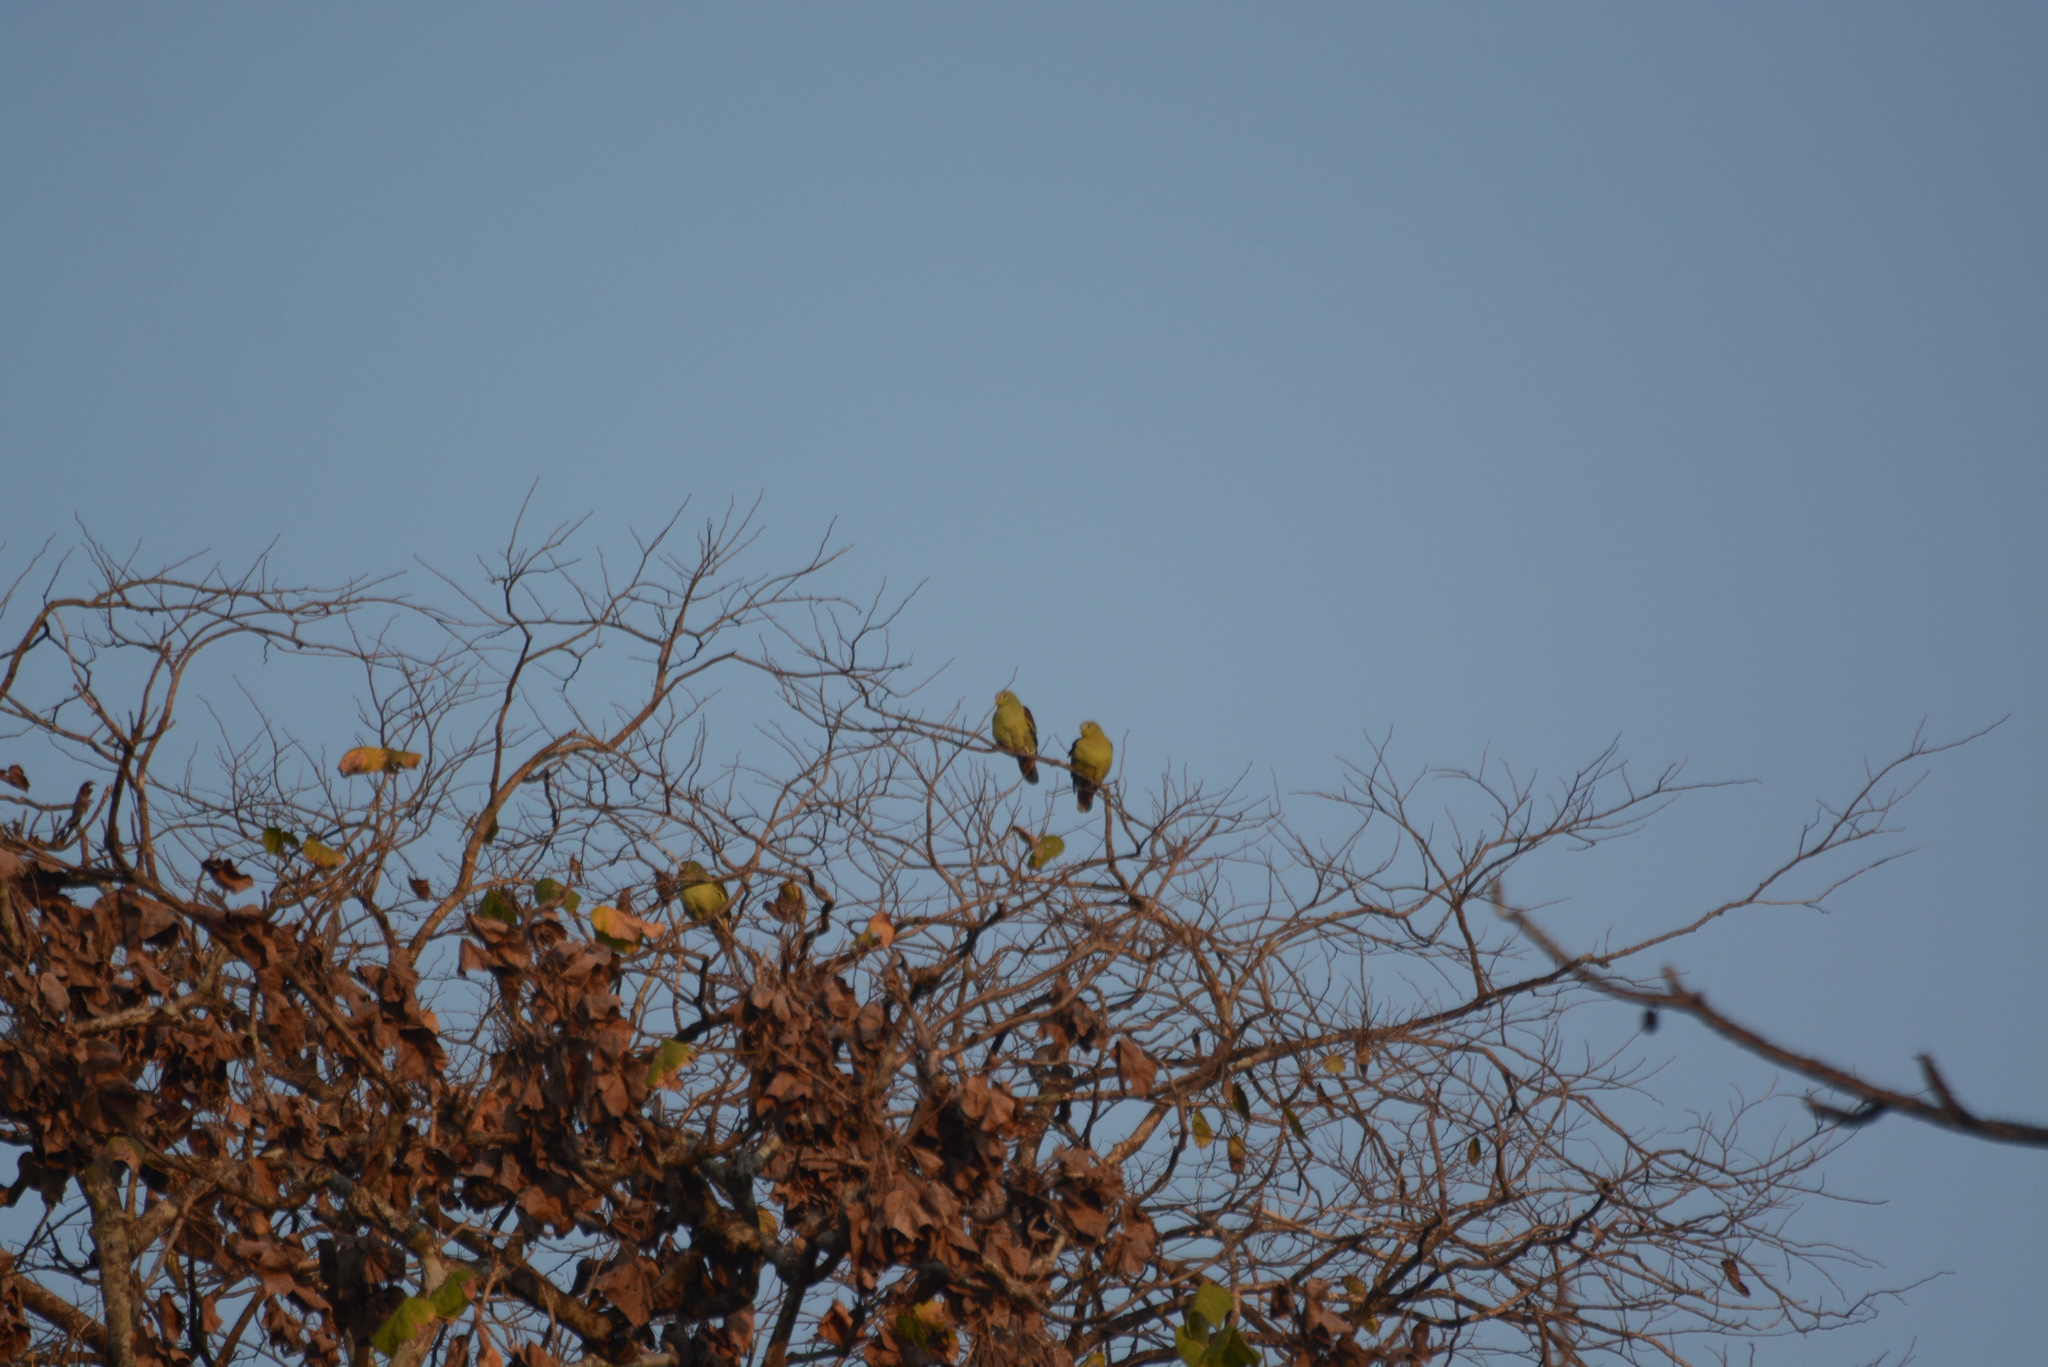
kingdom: Animalia
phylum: Chordata
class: Aves
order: Columbiformes
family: Columbidae
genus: Treron
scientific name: Treron affinis
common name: Grey-fronted green pigeon
